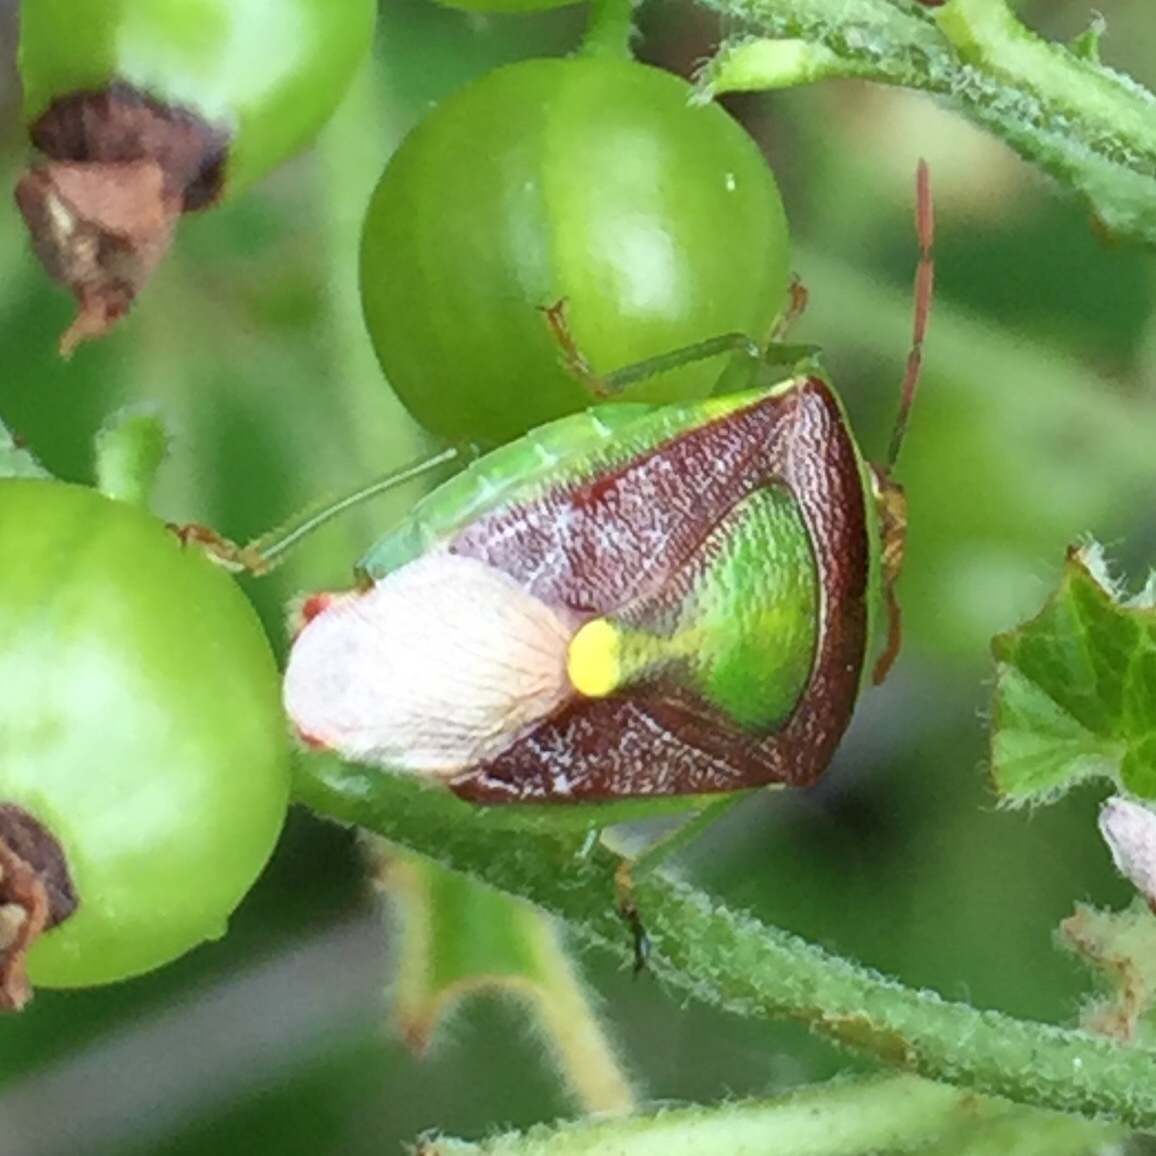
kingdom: Animalia
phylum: Arthropoda
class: Insecta
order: Hemiptera
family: Pentatomidae
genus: Banasa
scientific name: Banasa dimidiata
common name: Green burgundy stink bug
